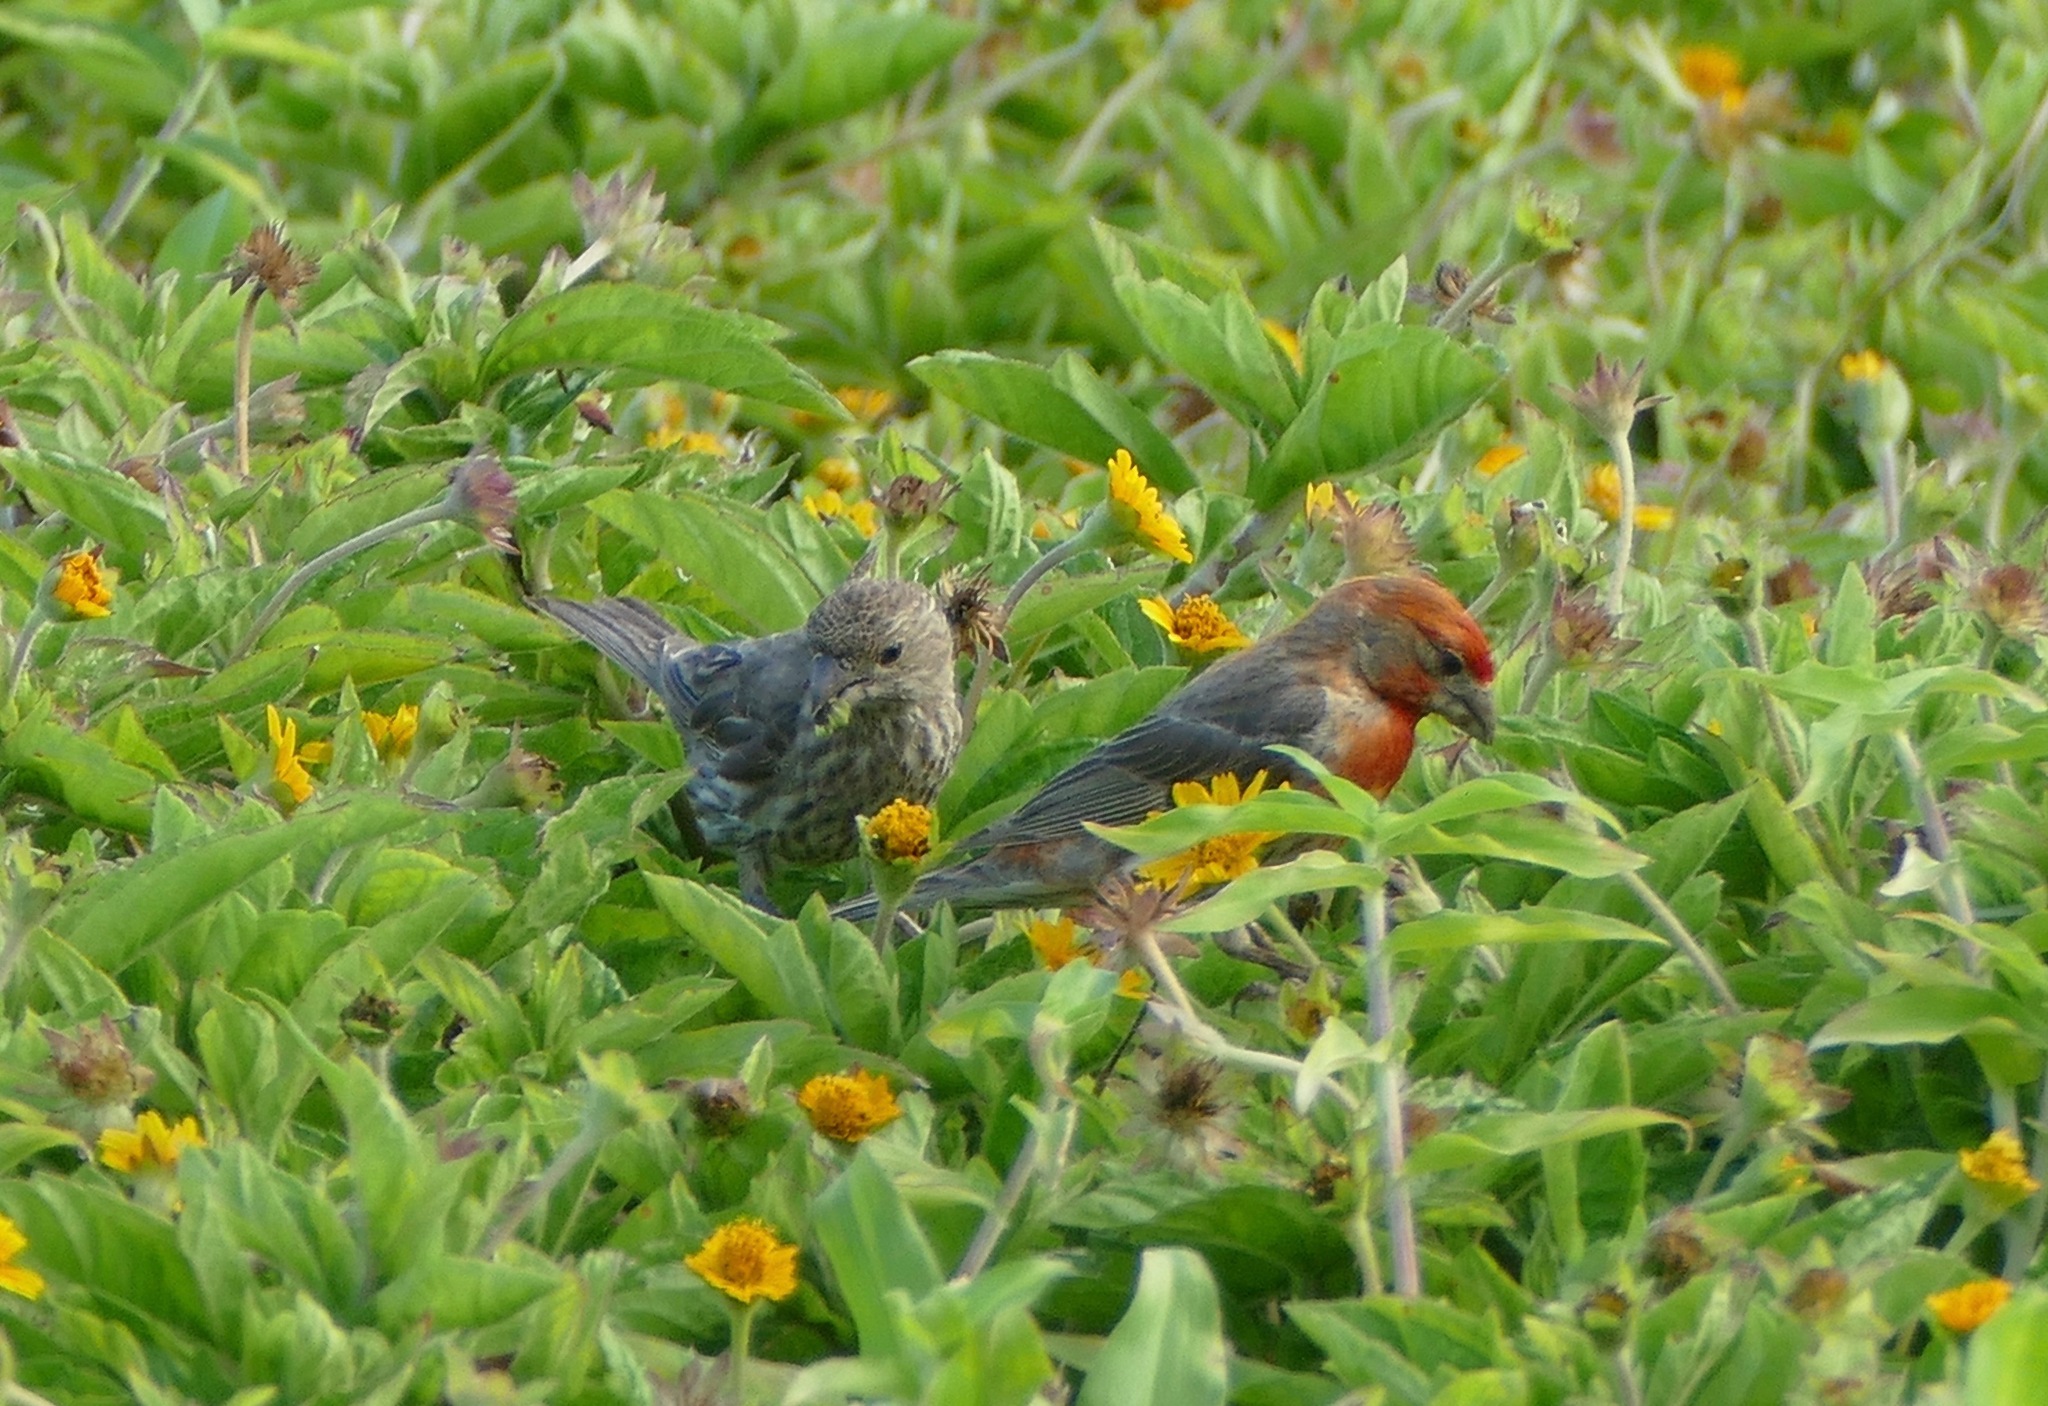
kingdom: Animalia
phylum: Chordata
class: Aves
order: Passeriformes
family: Fringillidae
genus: Haemorhous
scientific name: Haemorhous mexicanus
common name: House finch
